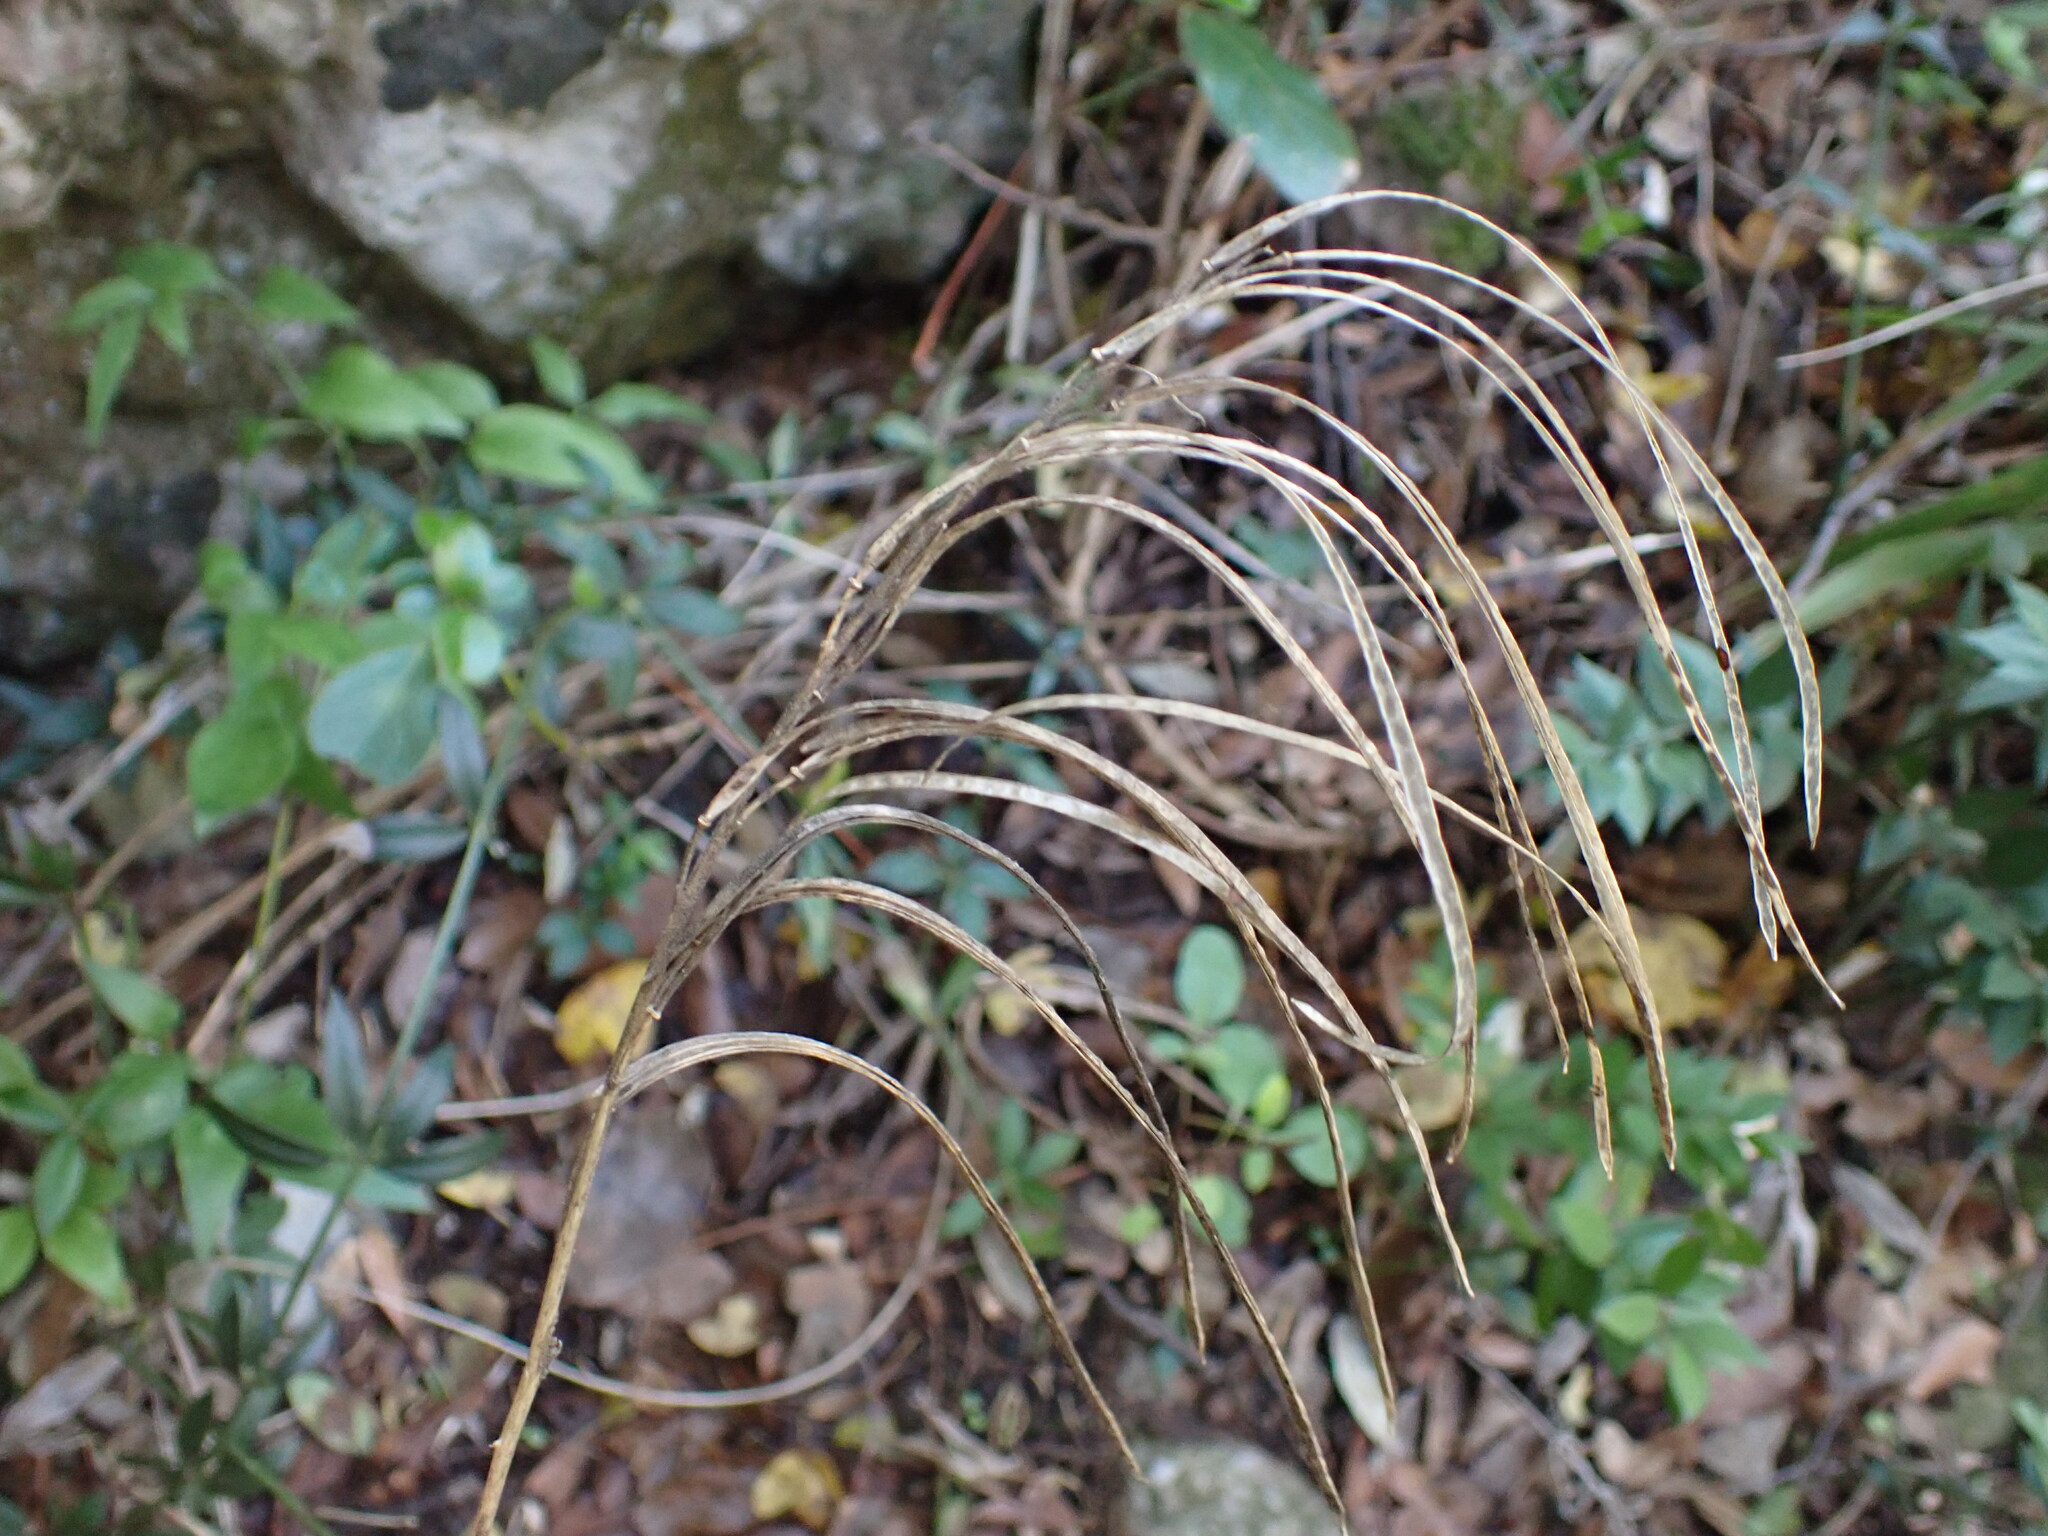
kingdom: Plantae
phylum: Tracheophyta
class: Magnoliopsida
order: Brassicales
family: Brassicaceae
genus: Pseudoturritis
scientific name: Pseudoturritis turrita
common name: Tower cress
